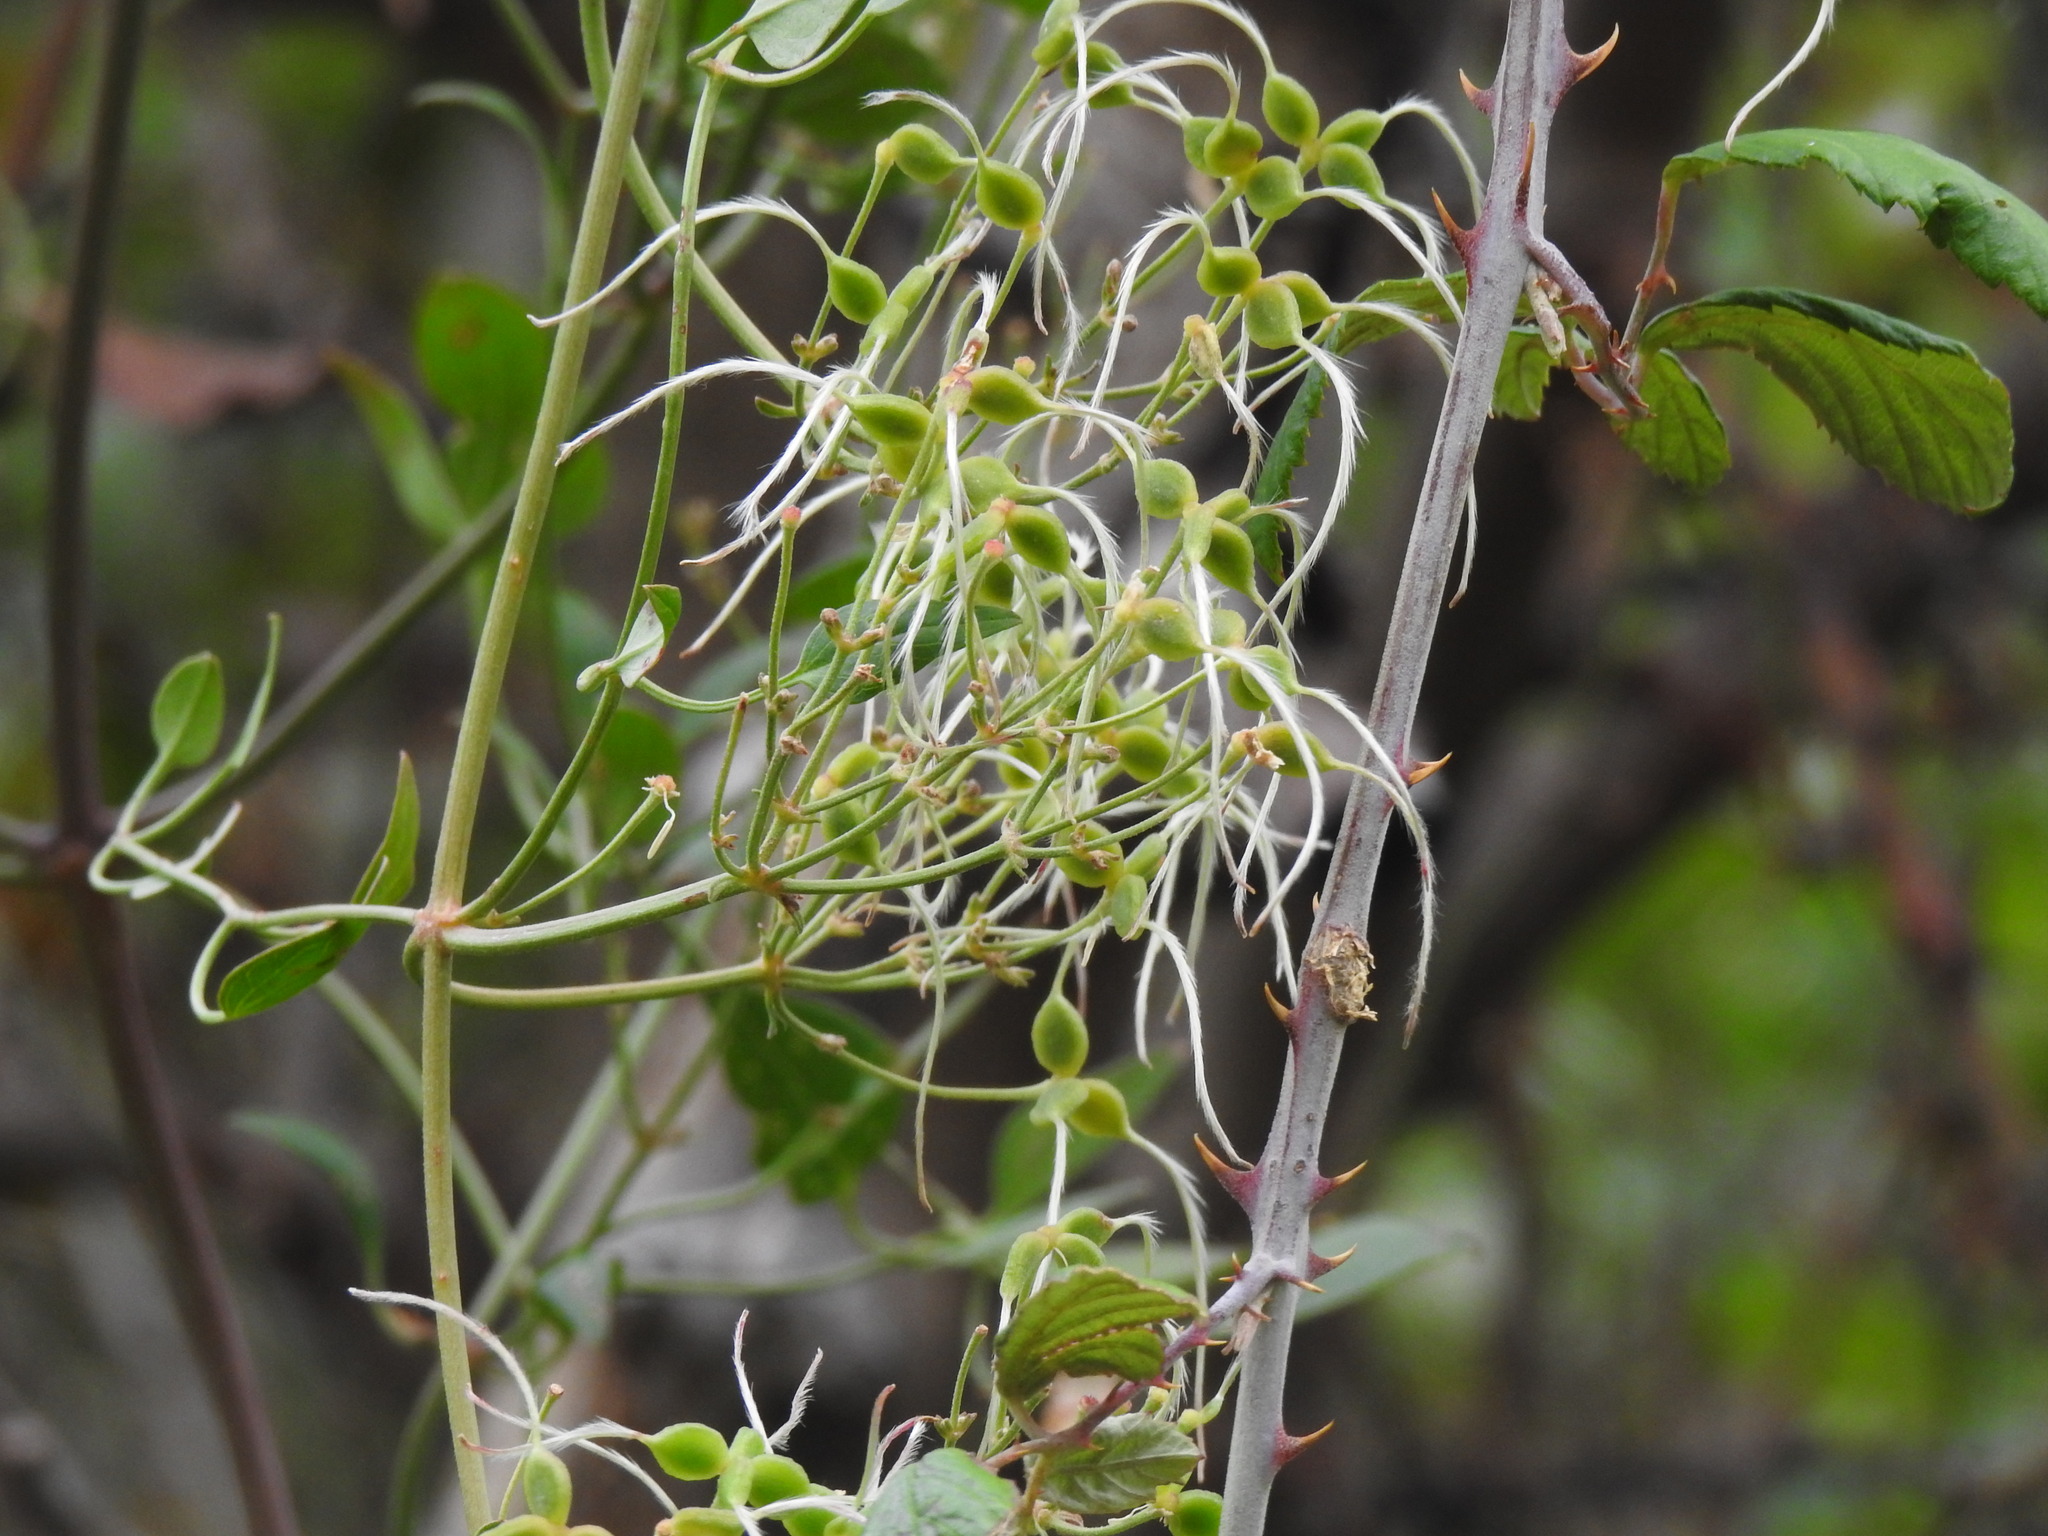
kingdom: Plantae
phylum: Tracheophyta
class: Magnoliopsida
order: Ranunculales
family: Ranunculaceae
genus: Clematis
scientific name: Clematis flammula
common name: Virgin's-bower
